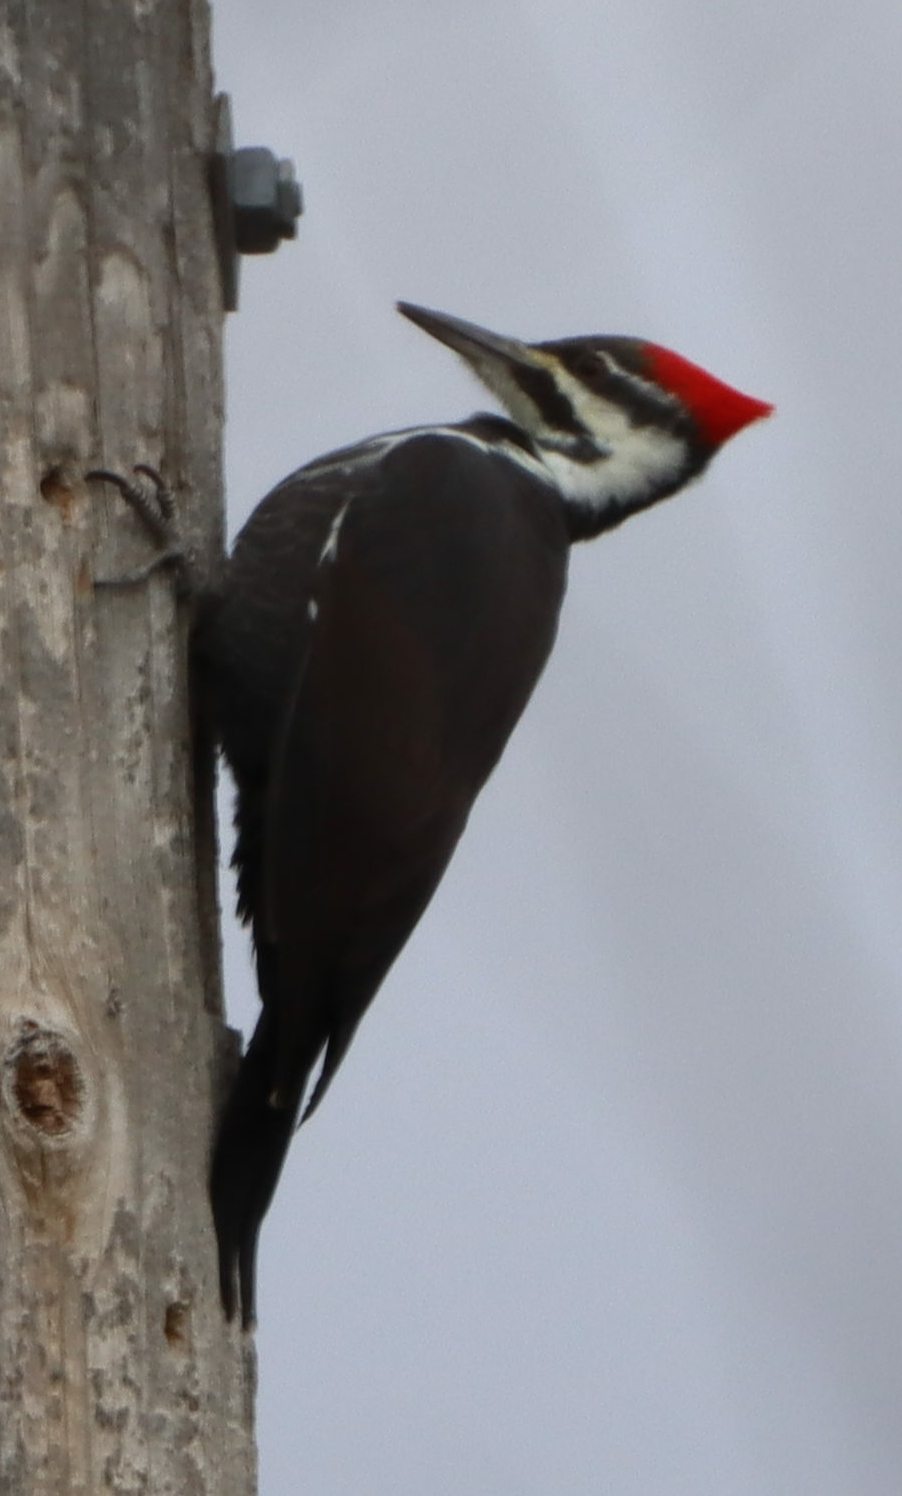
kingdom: Animalia
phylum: Chordata
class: Aves
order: Piciformes
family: Picidae
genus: Dryocopus
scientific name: Dryocopus pileatus
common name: Pileated woodpecker
